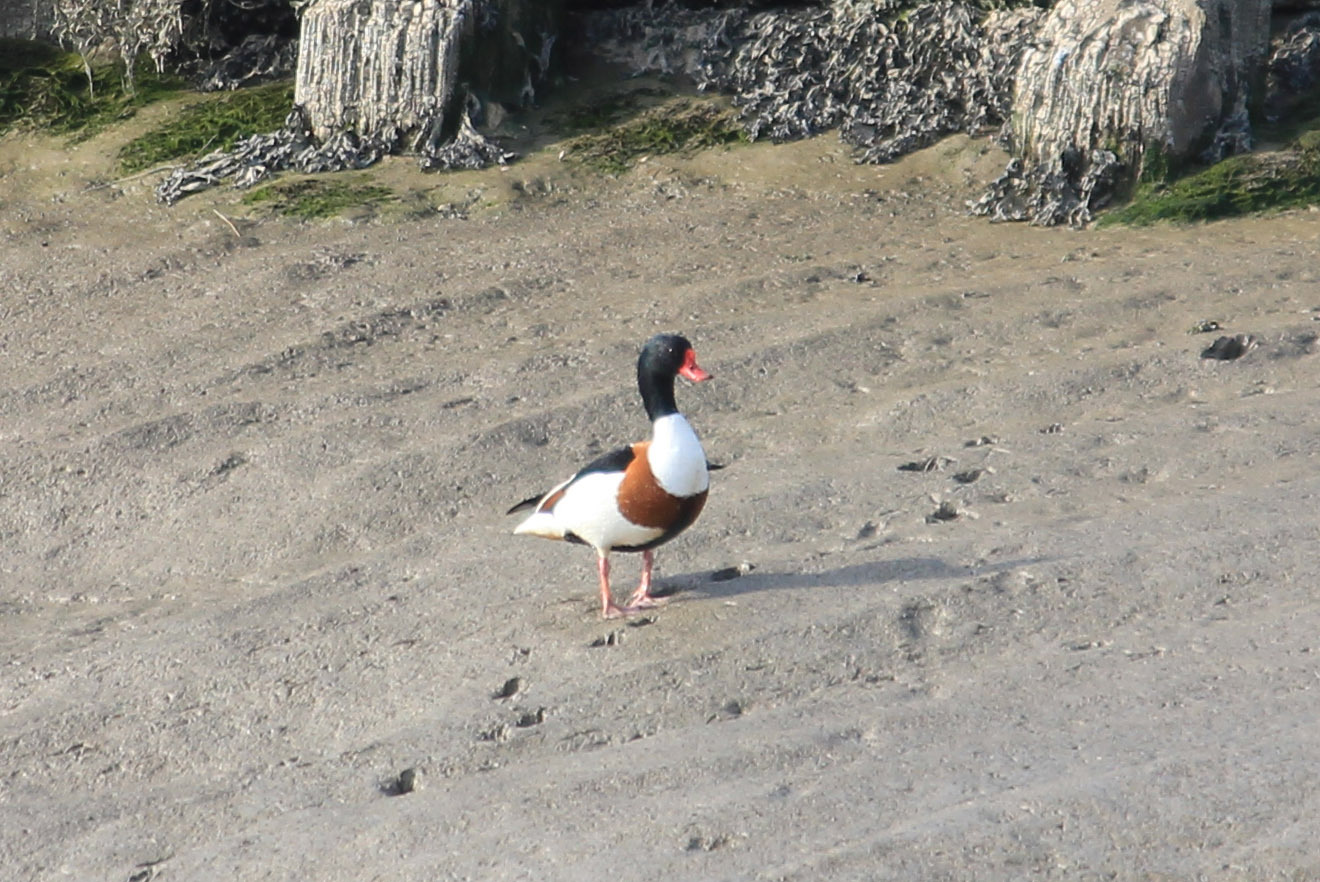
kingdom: Animalia
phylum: Chordata
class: Aves
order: Anseriformes
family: Anatidae
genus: Tadorna
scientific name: Tadorna tadorna
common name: Common shelduck
